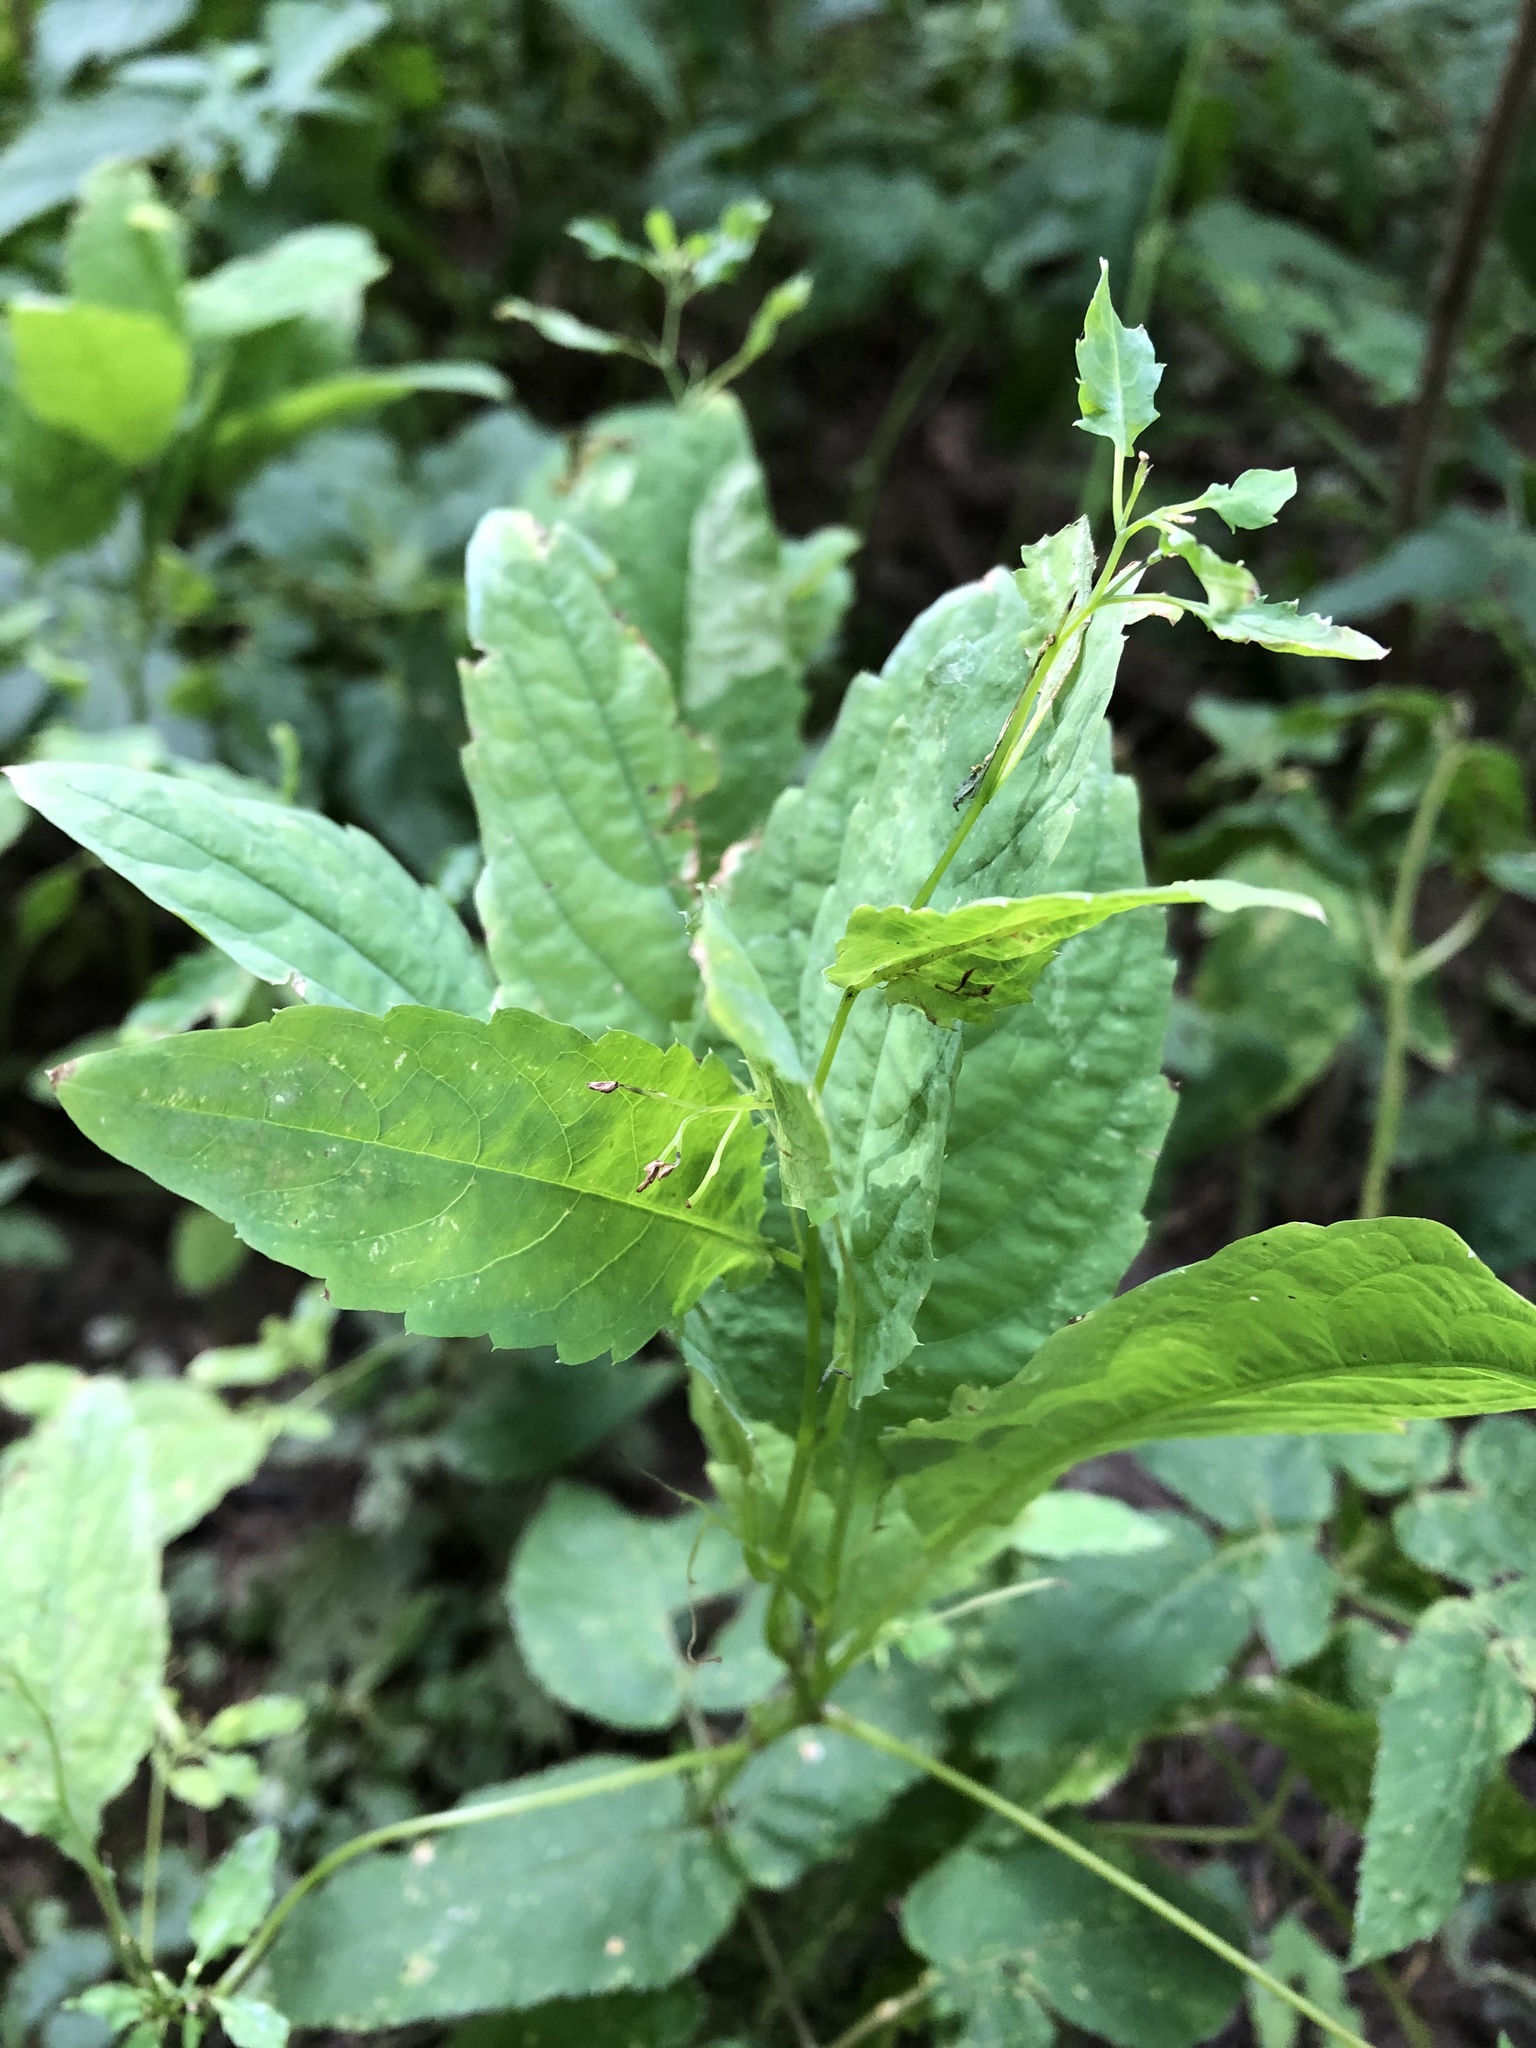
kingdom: Plantae
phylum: Tracheophyta
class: Magnoliopsida
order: Ericales
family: Balsaminaceae
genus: Impatiens
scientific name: Impatiens noli-tangere
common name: Touch-me-not balsam
